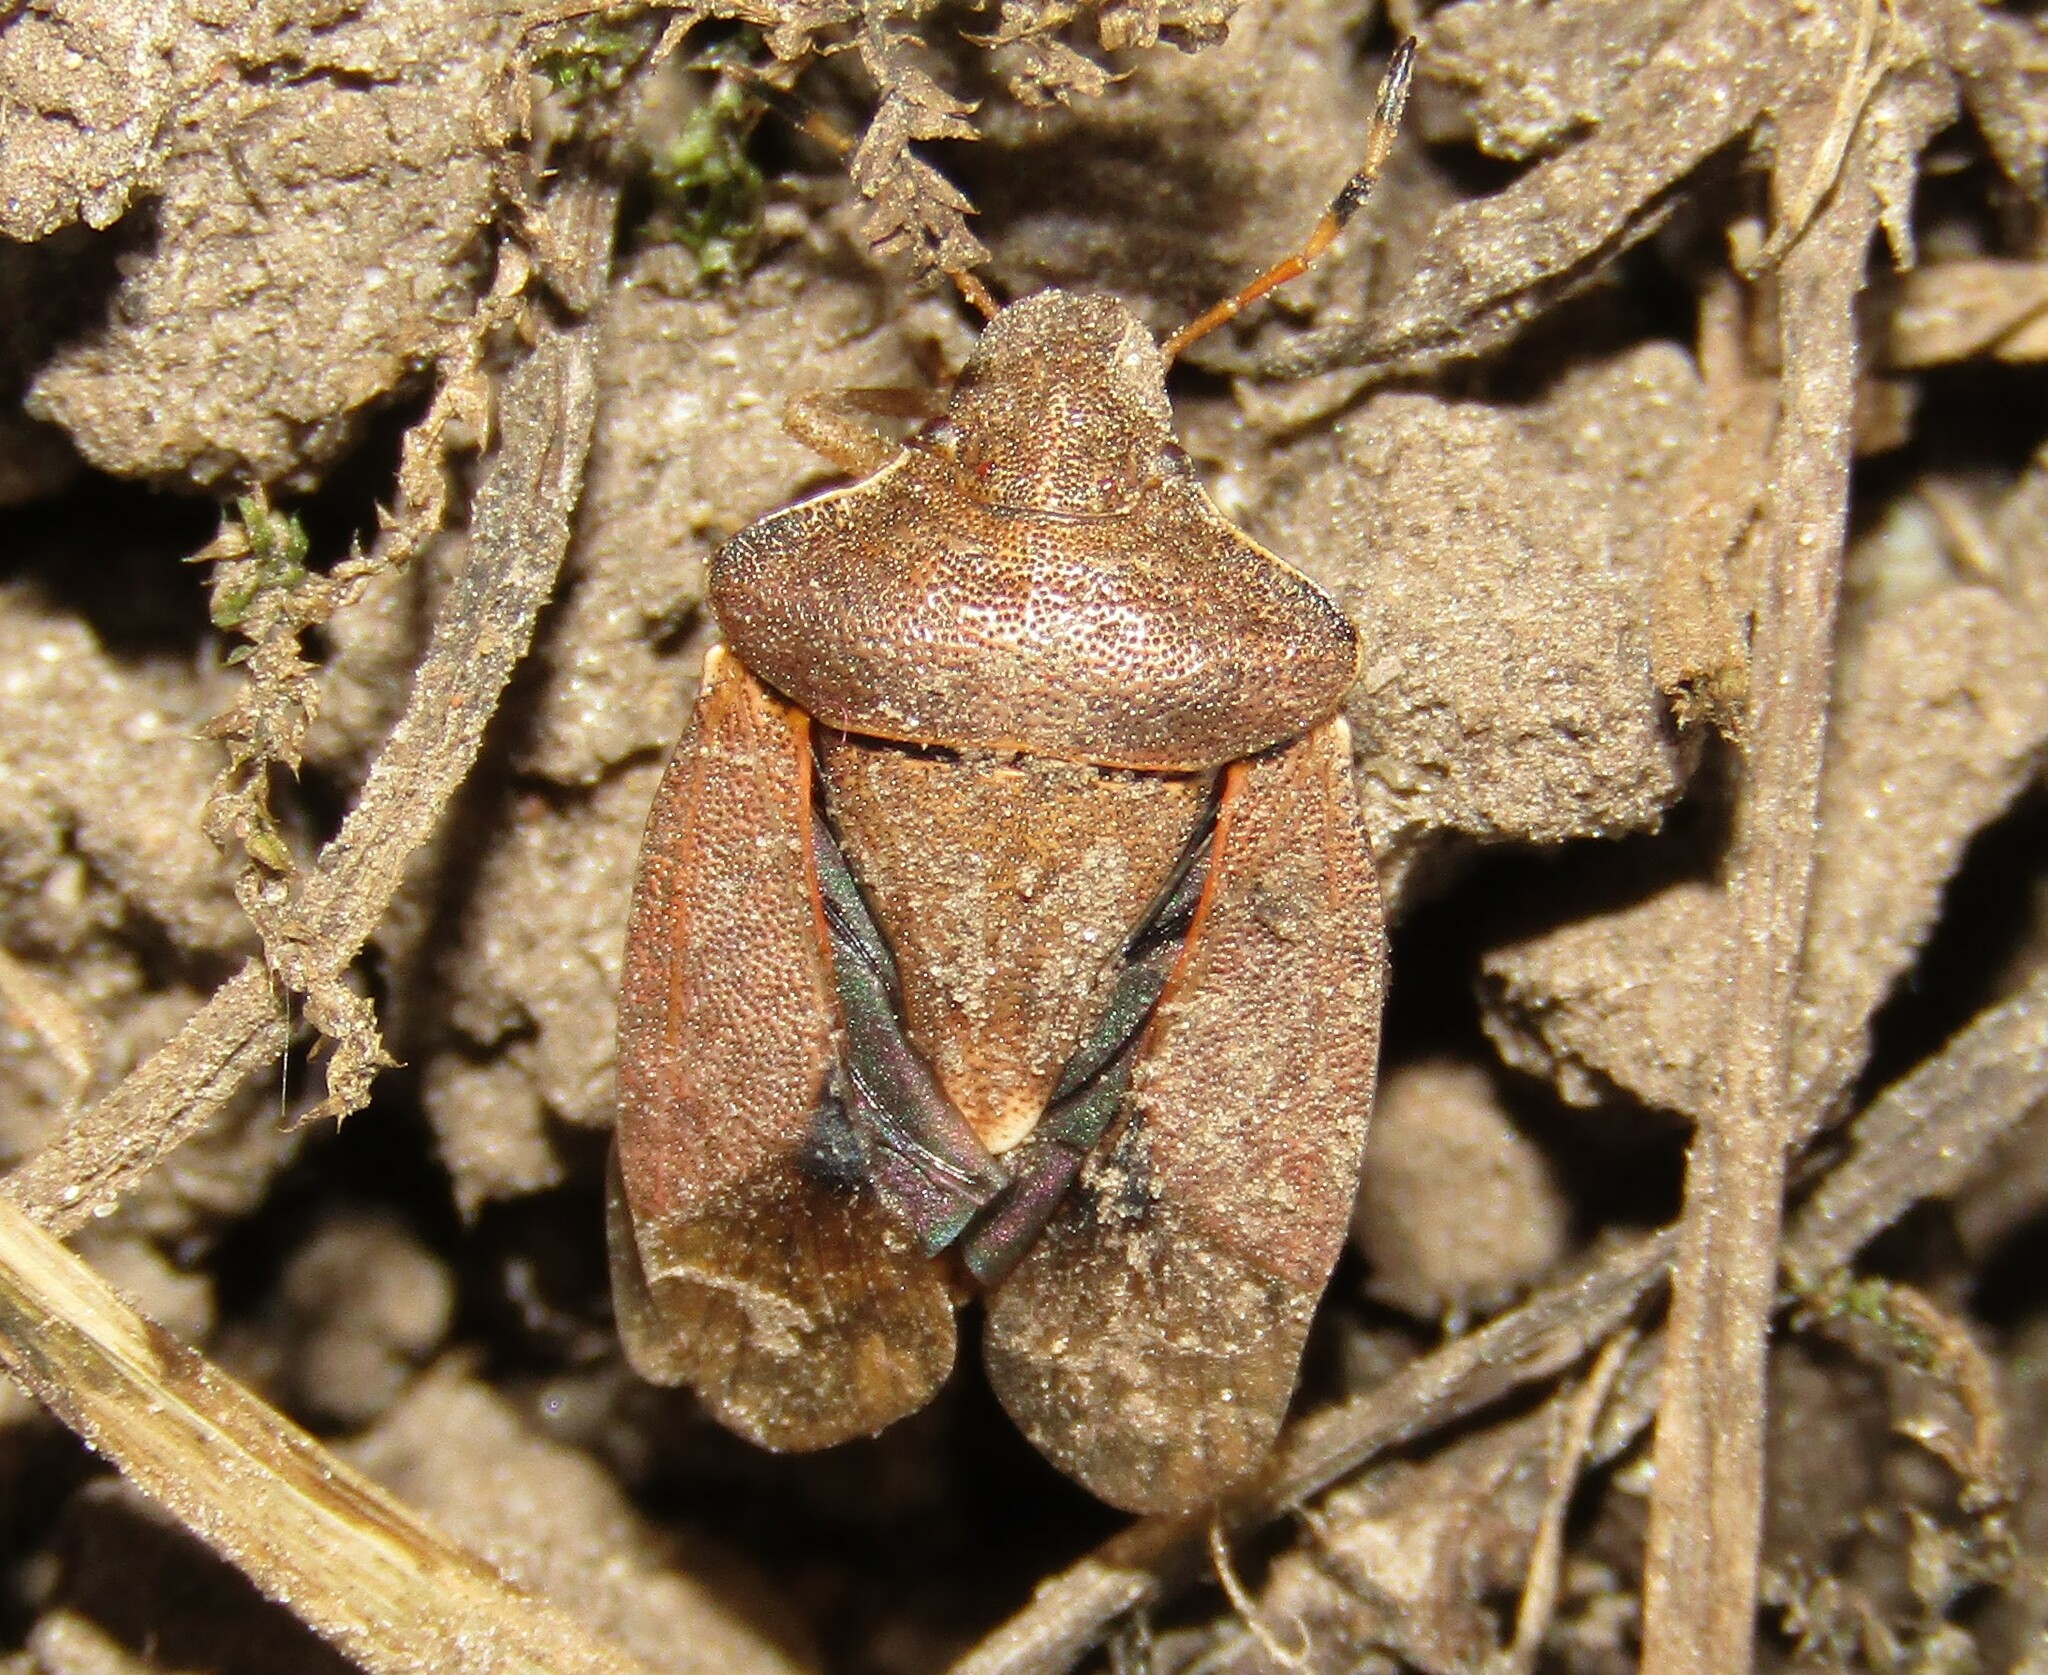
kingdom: Animalia
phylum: Arthropoda
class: Insecta
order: Hemiptera
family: Pentatomidae
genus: Holcostethus
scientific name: Holcostethus strictus
